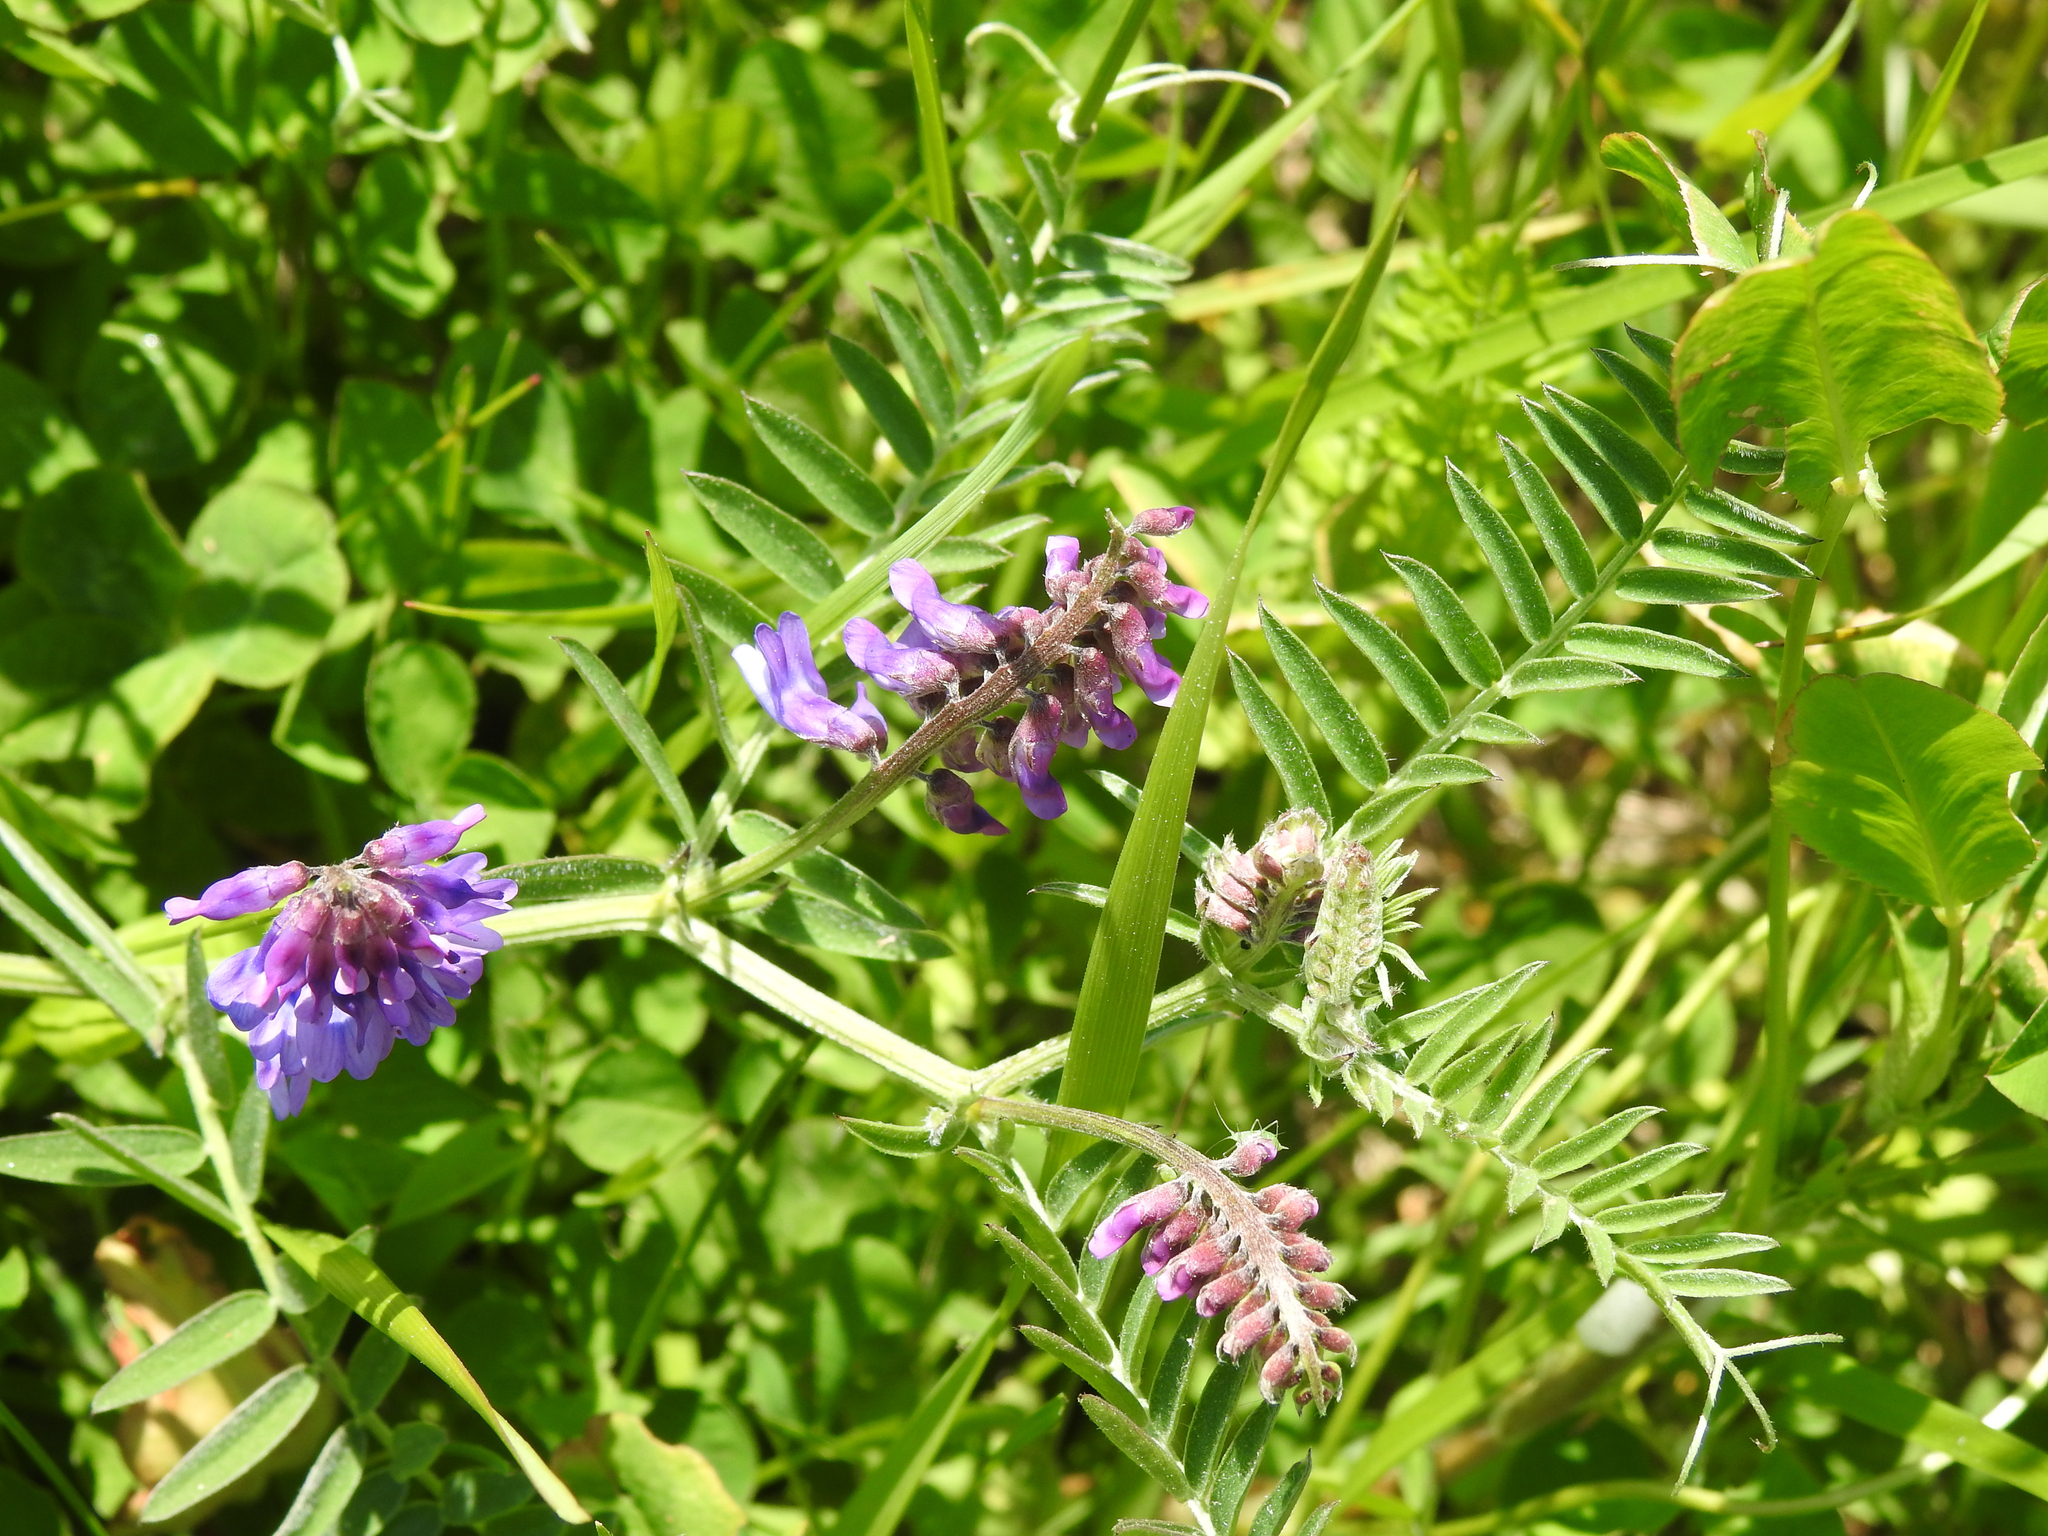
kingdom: Plantae
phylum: Tracheophyta
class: Magnoliopsida
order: Fabales
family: Fabaceae
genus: Vicia
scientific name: Vicia cracca
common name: Bird vetch
